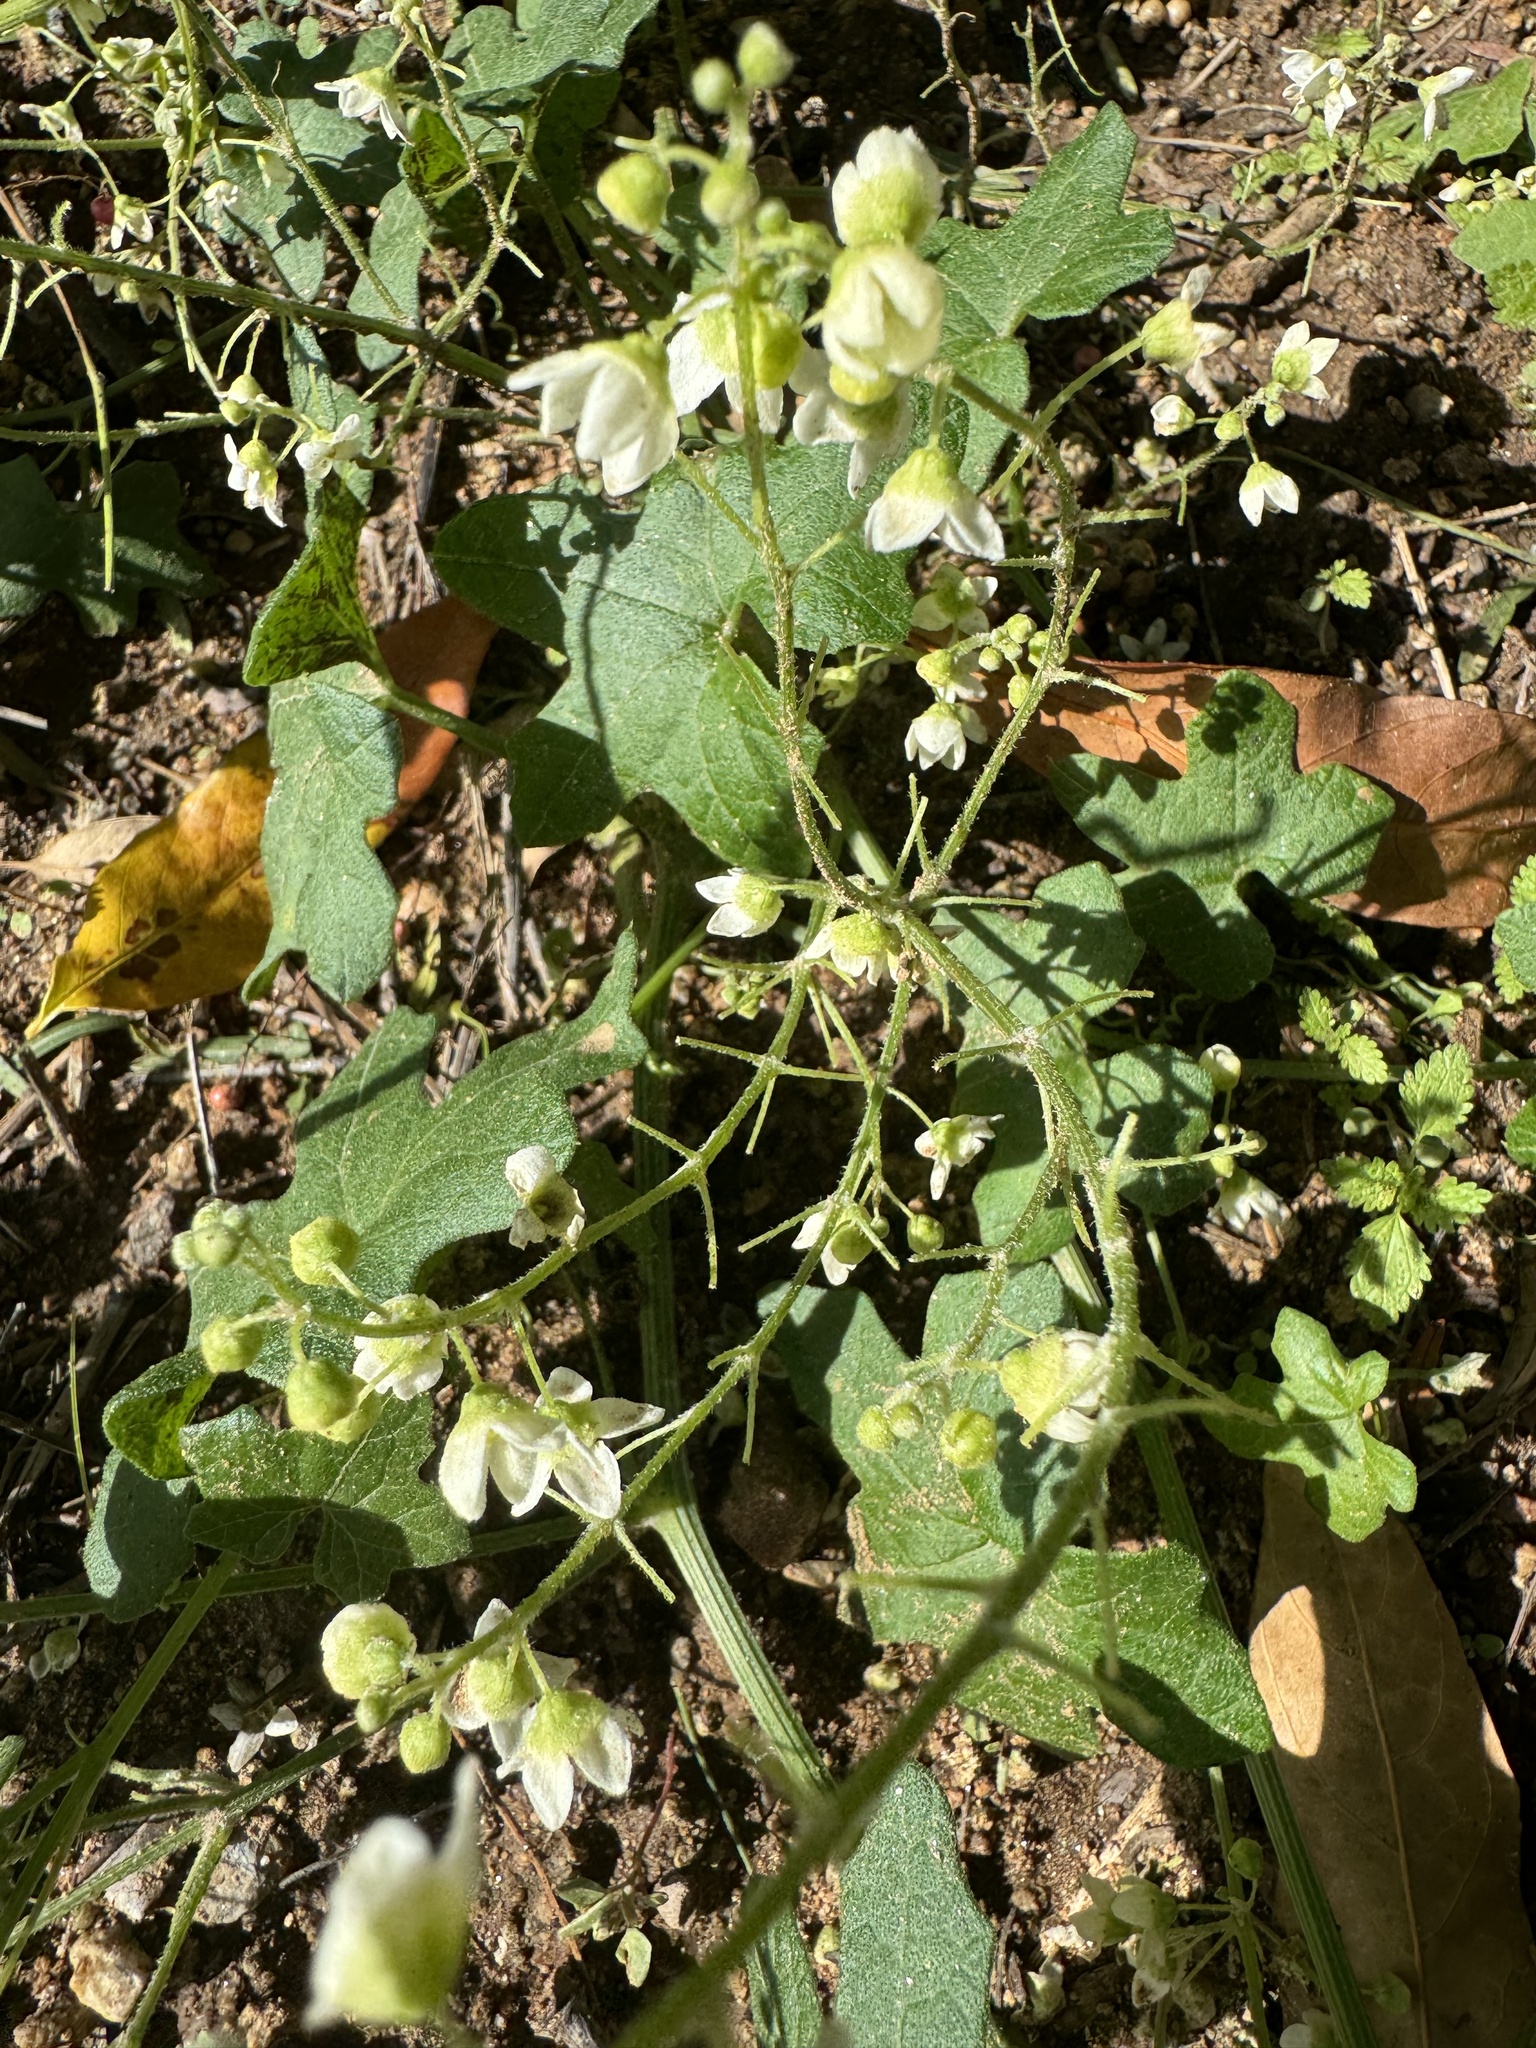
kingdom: Plantae
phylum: Tracheophyta
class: Magnoliopsida
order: Cucurbitales
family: Cucurbitaceae
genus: Marah
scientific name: Marah macrocarpa
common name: Cucamonga manroot
